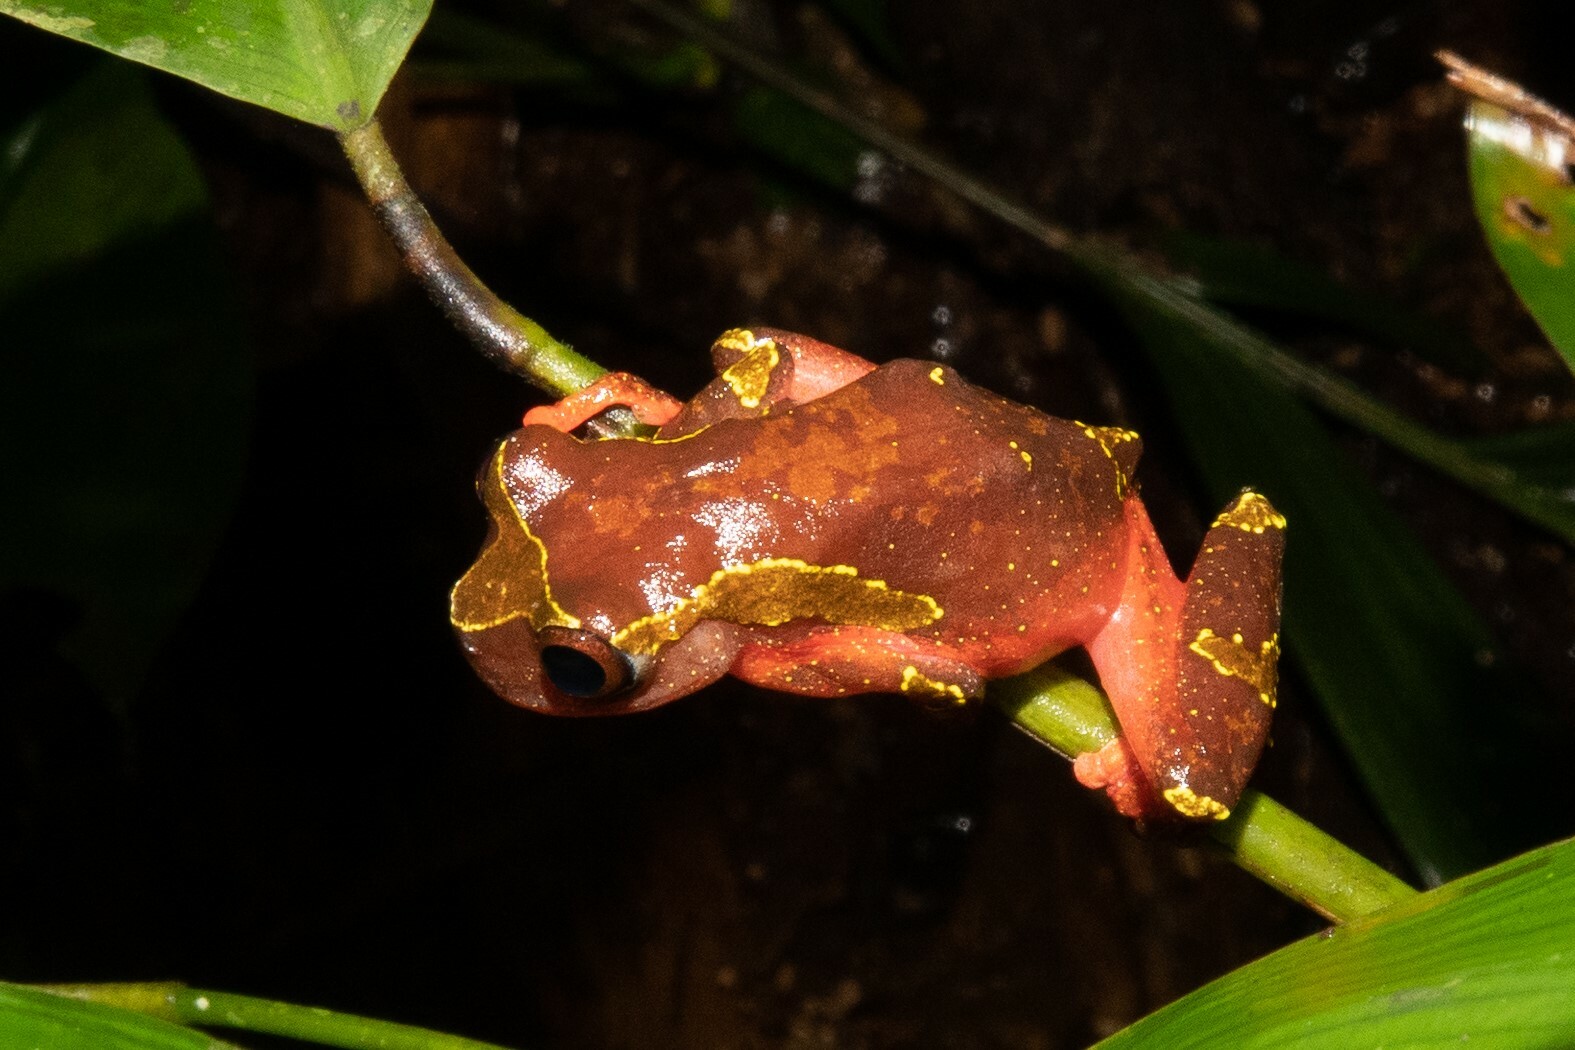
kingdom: Animalia
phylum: Chordata
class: Amphibia
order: Anura
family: Hylidae
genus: Dendropsophus
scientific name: Dendropsophus sarayacuensis
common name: Shreve's sarayacu treefrog
